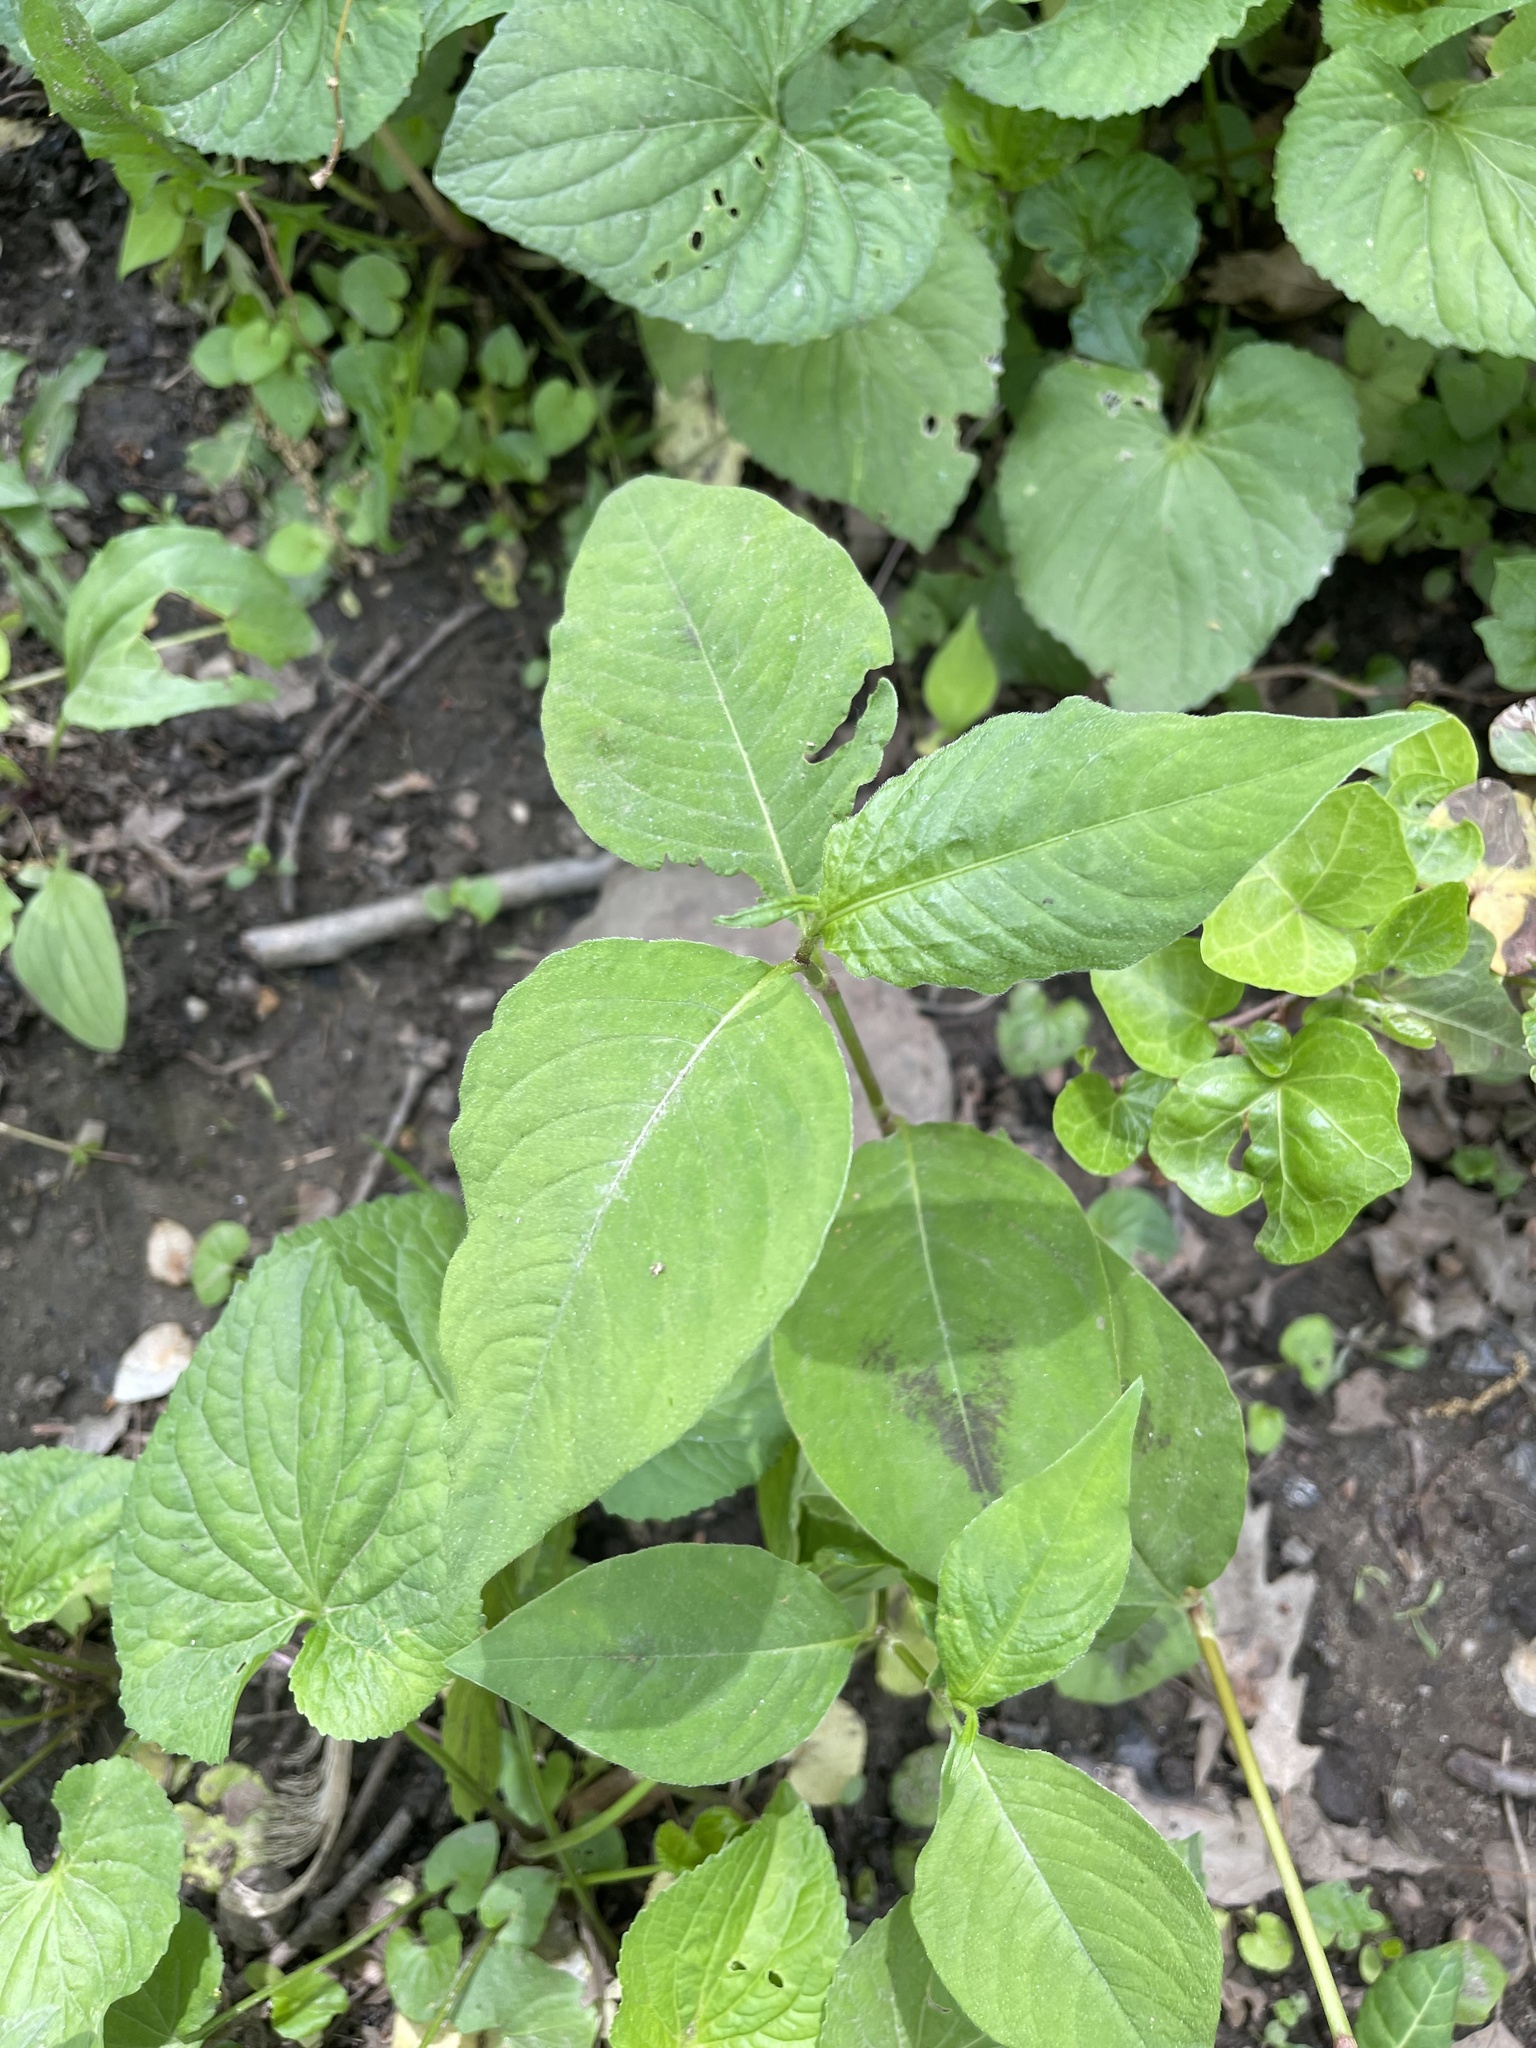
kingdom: Plantae
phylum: Tracheophyta
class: Magnoliopsida
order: Caryophyllales
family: Polygonaceae
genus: Persicaria
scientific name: Persicaria virginiana
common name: Jumpseed
